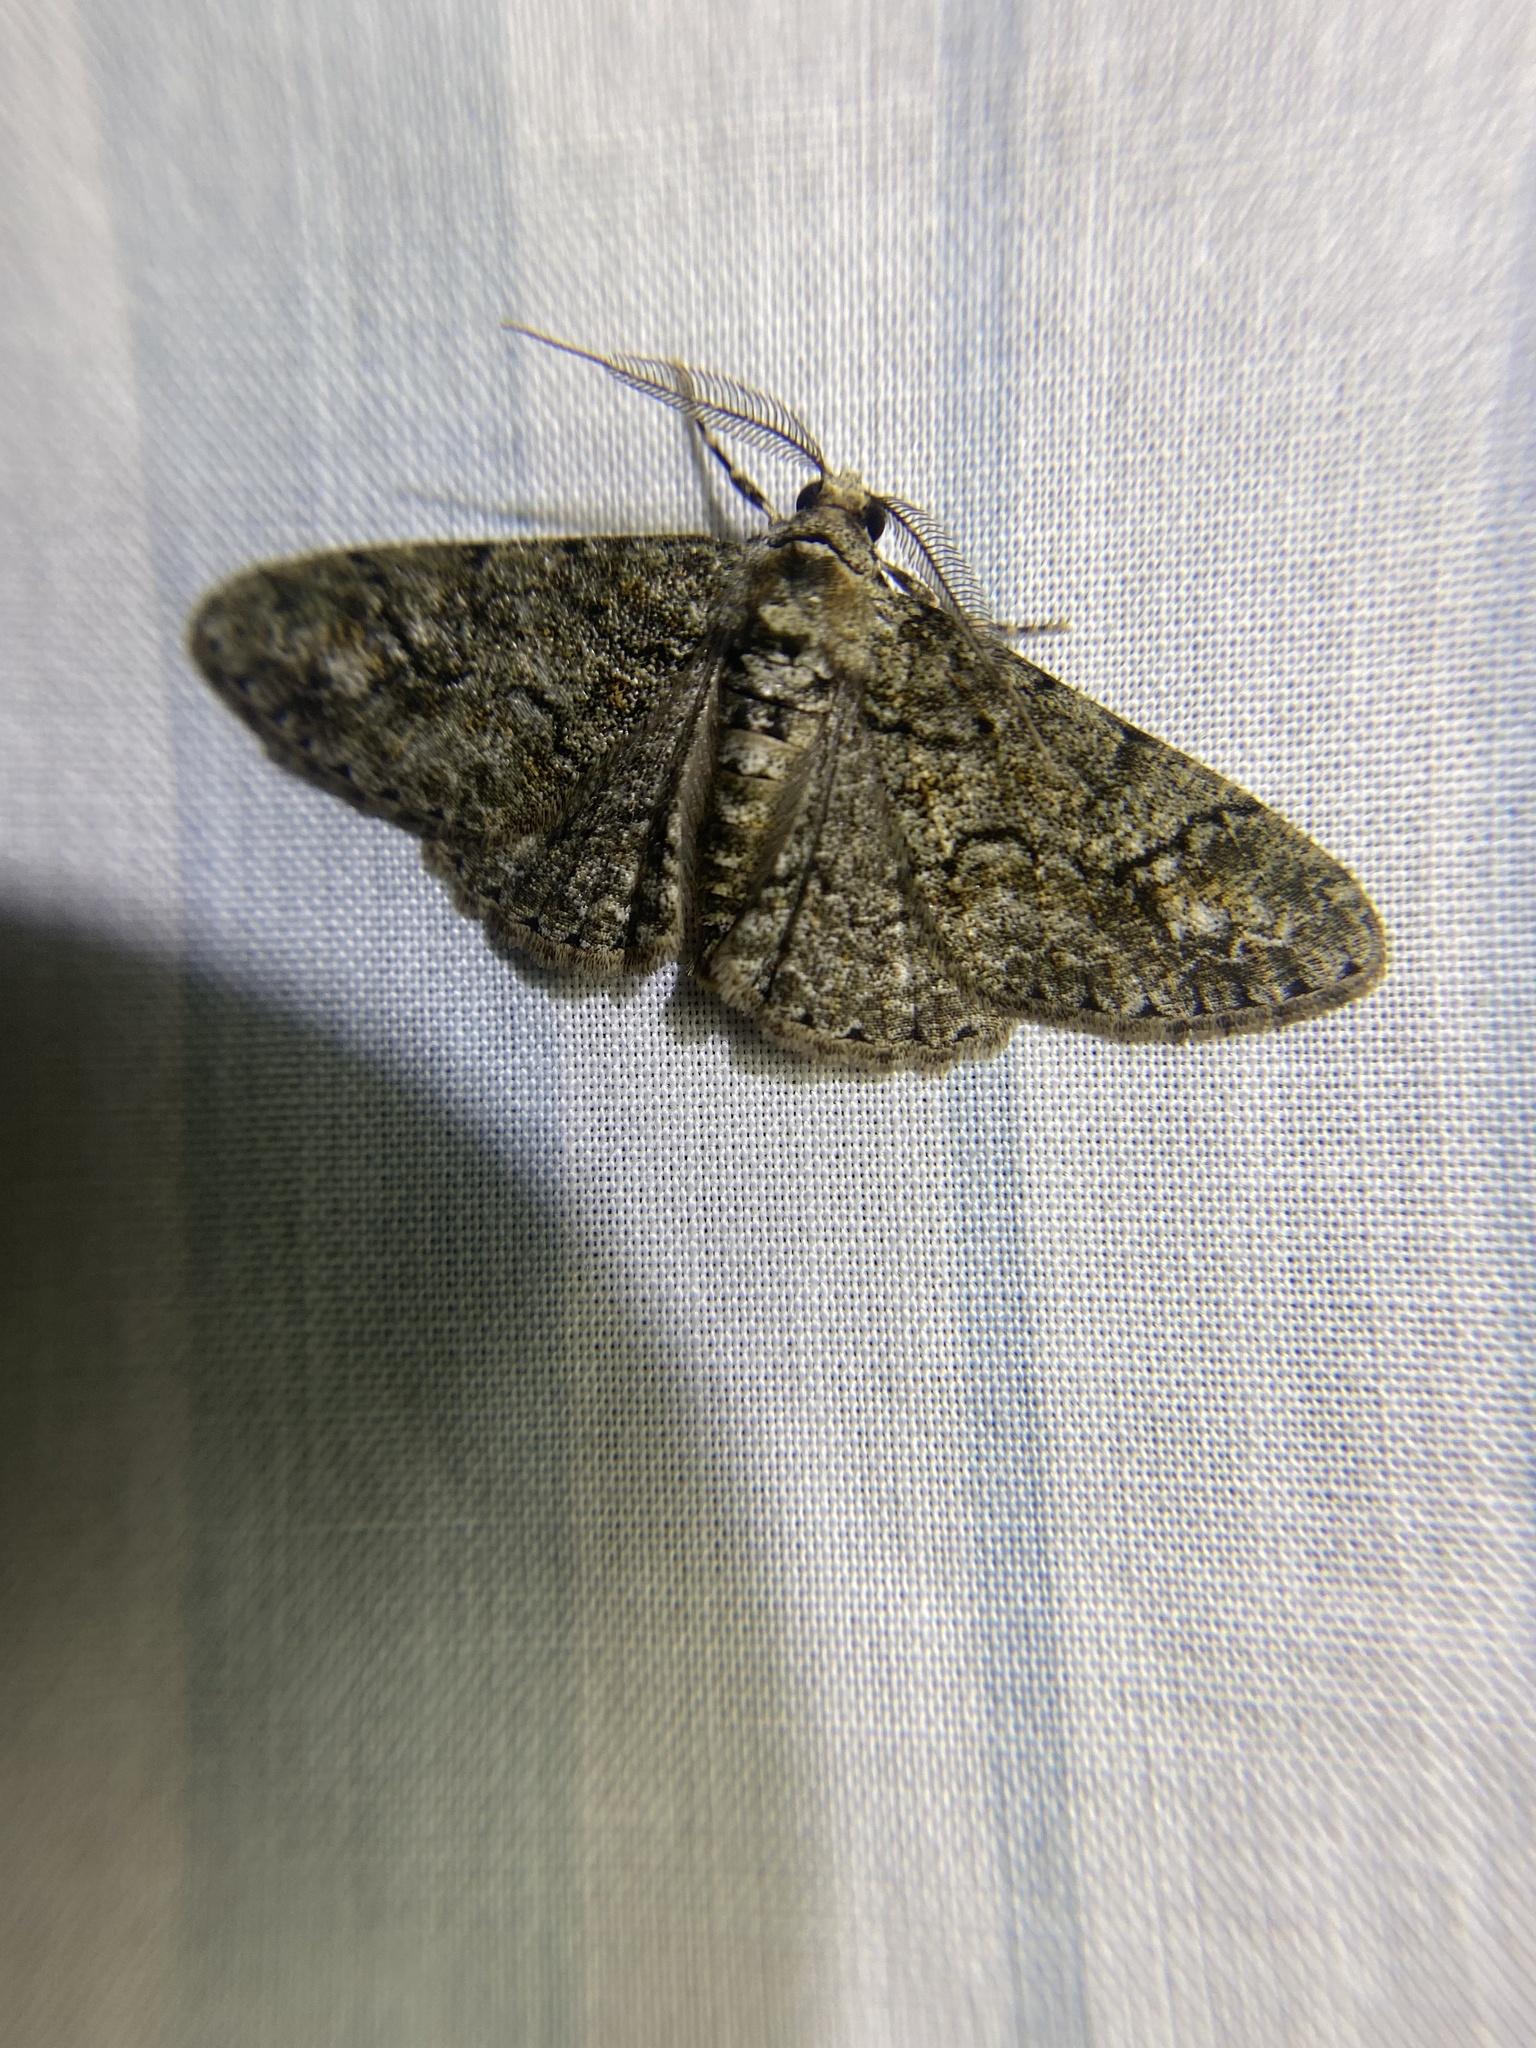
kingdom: Animalia
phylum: Arthropoda
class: Insecta
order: Lepidoptera
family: Geometridae
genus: Cleora
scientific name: Cleora sublunaria
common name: Double-lined gray
